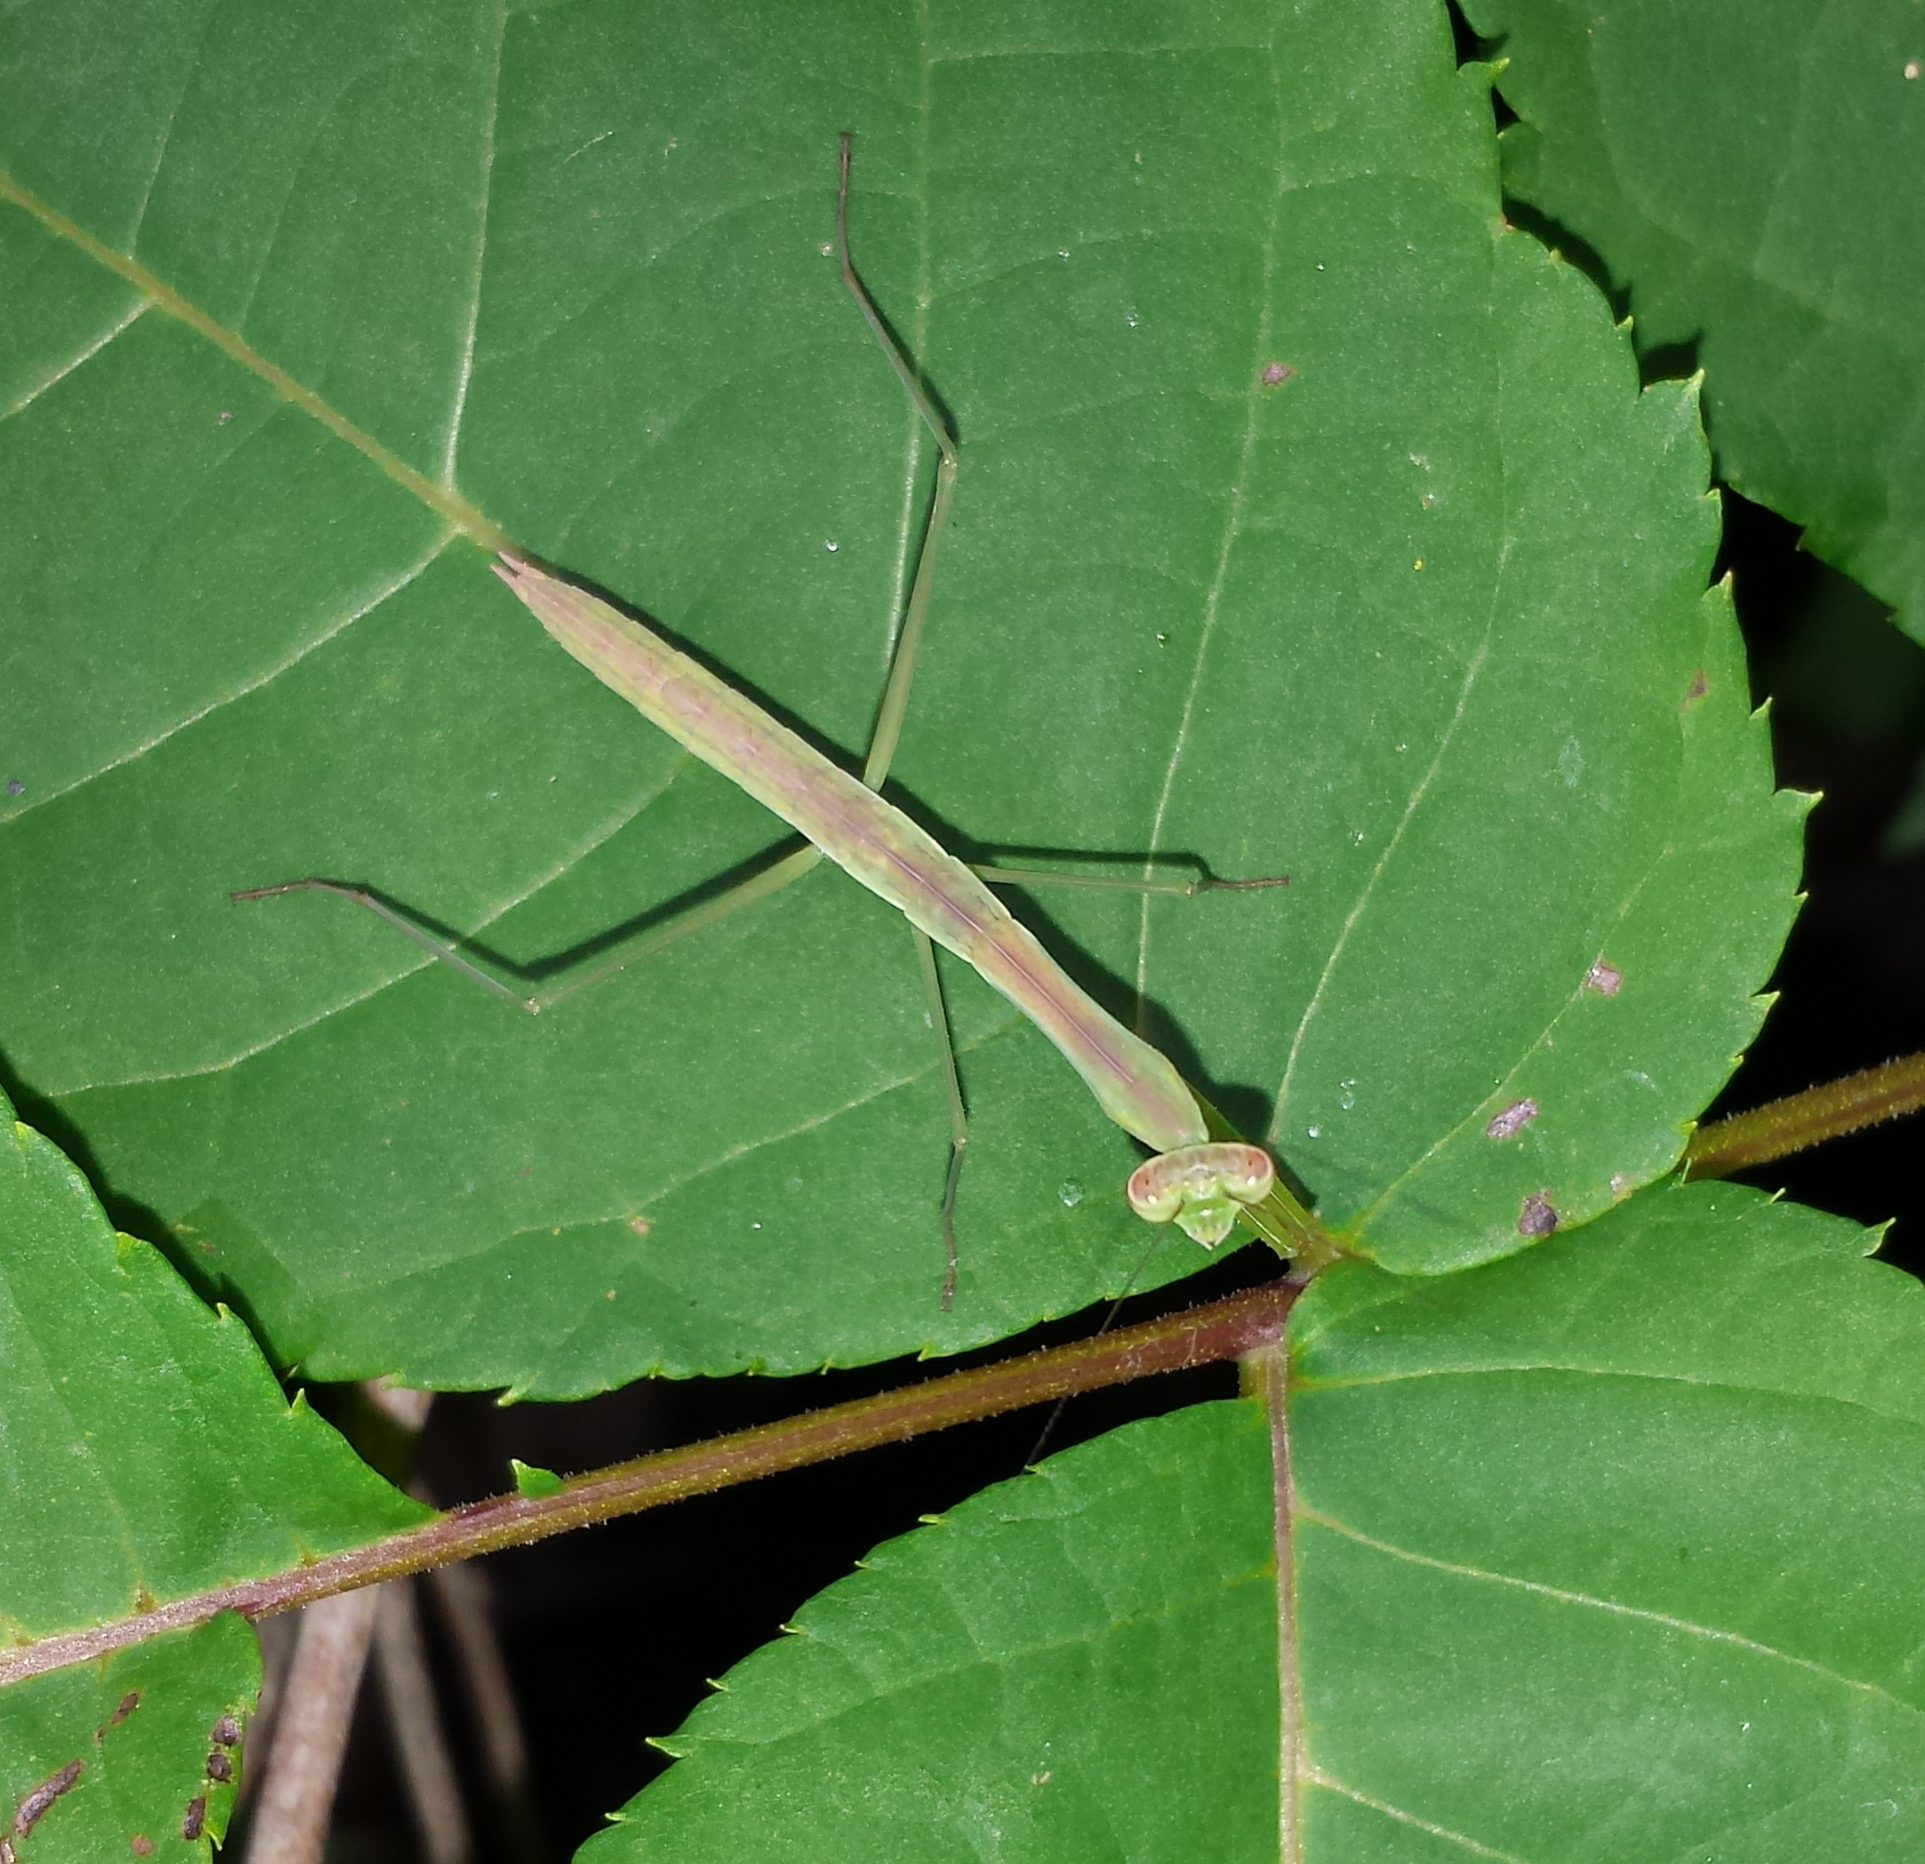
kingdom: Animalia
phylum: Arthropoda
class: Insecta
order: Mantodea
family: Mantidae
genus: Tenodera
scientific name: Tenodera sinensis
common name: Chinese mantis
